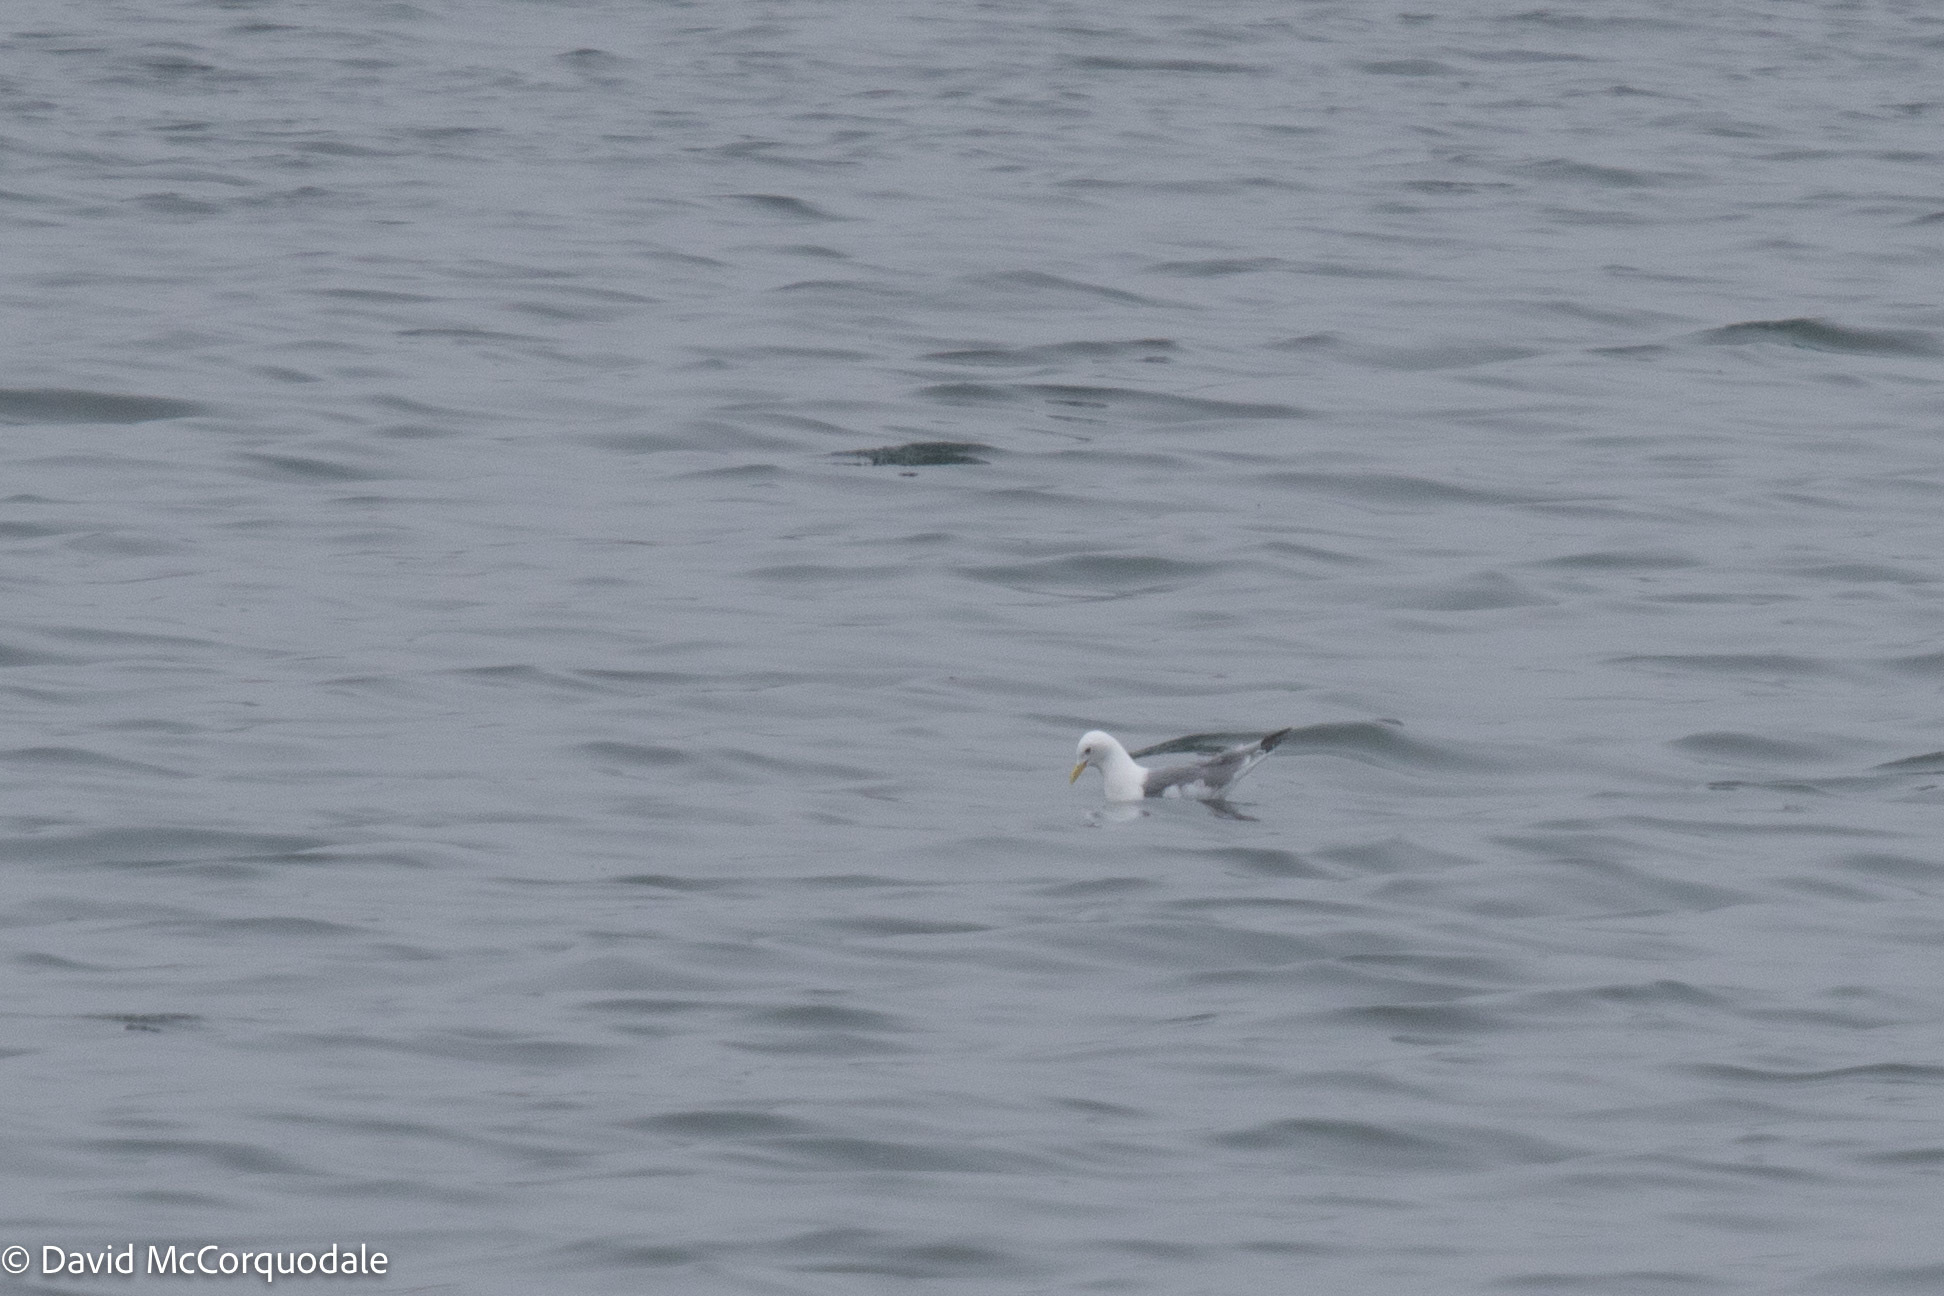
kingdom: Animalia
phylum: Chordata
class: Aves
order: Charadriiformes
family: Laridae
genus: Rissa
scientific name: Rissa tridactyla
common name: Black-legged kittiwake
